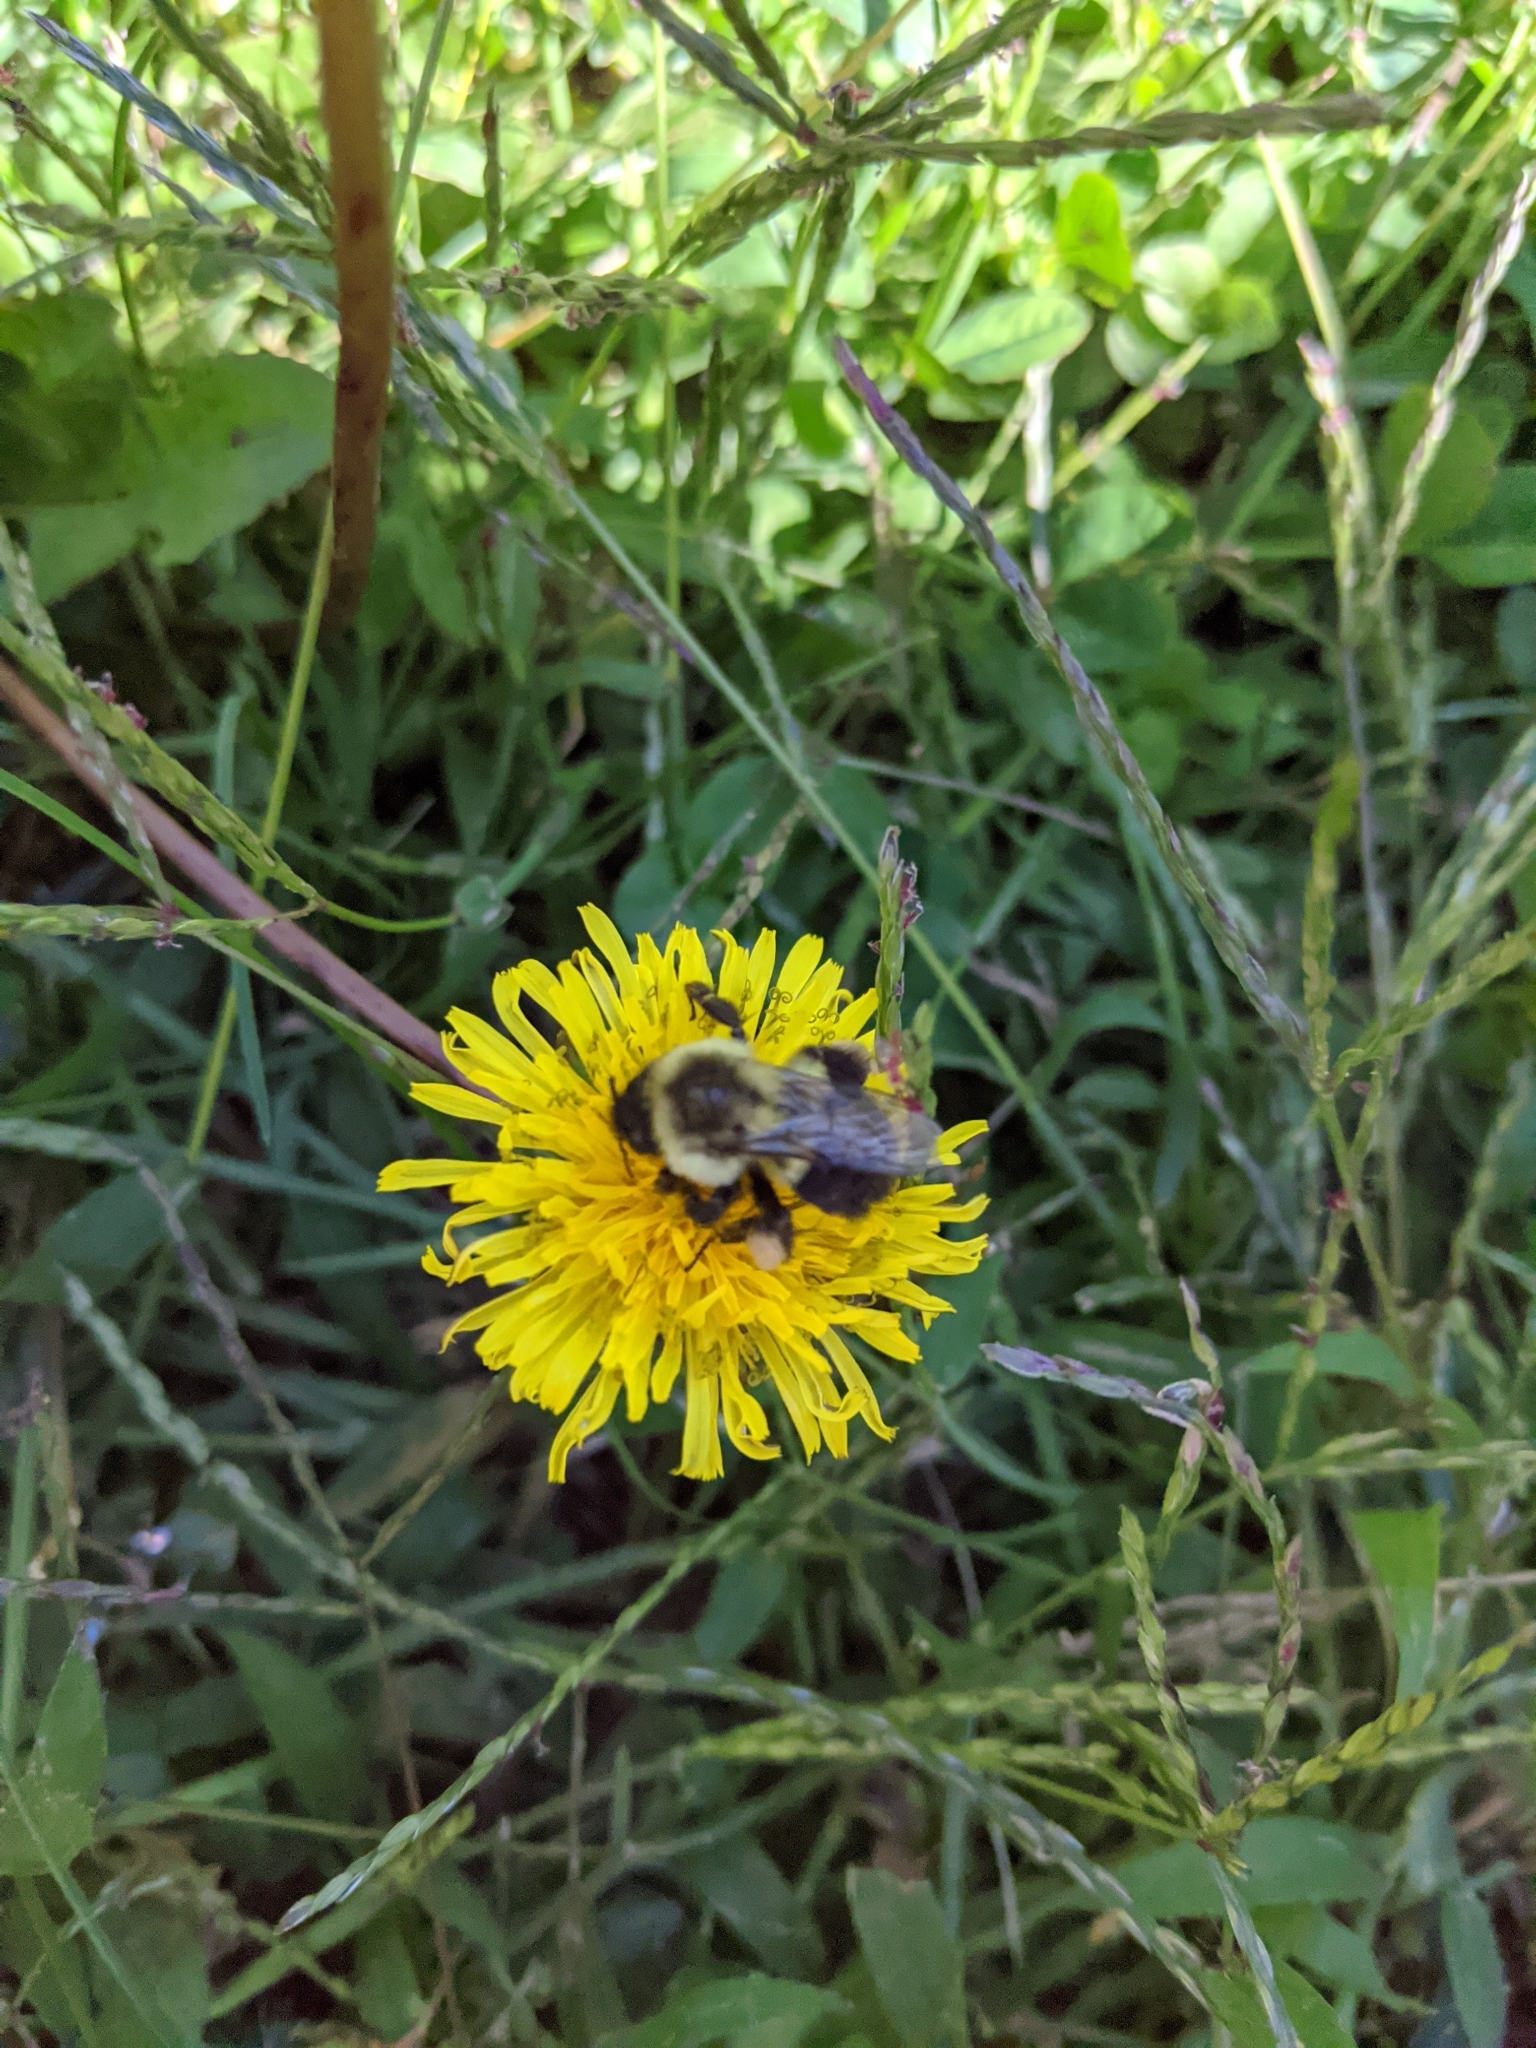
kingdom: Animalia
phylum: Arthropoda
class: Insecta
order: Hymenoptera
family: Apidae
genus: Bombus
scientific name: Bombus impatiens
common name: Common eastern bumble bee
